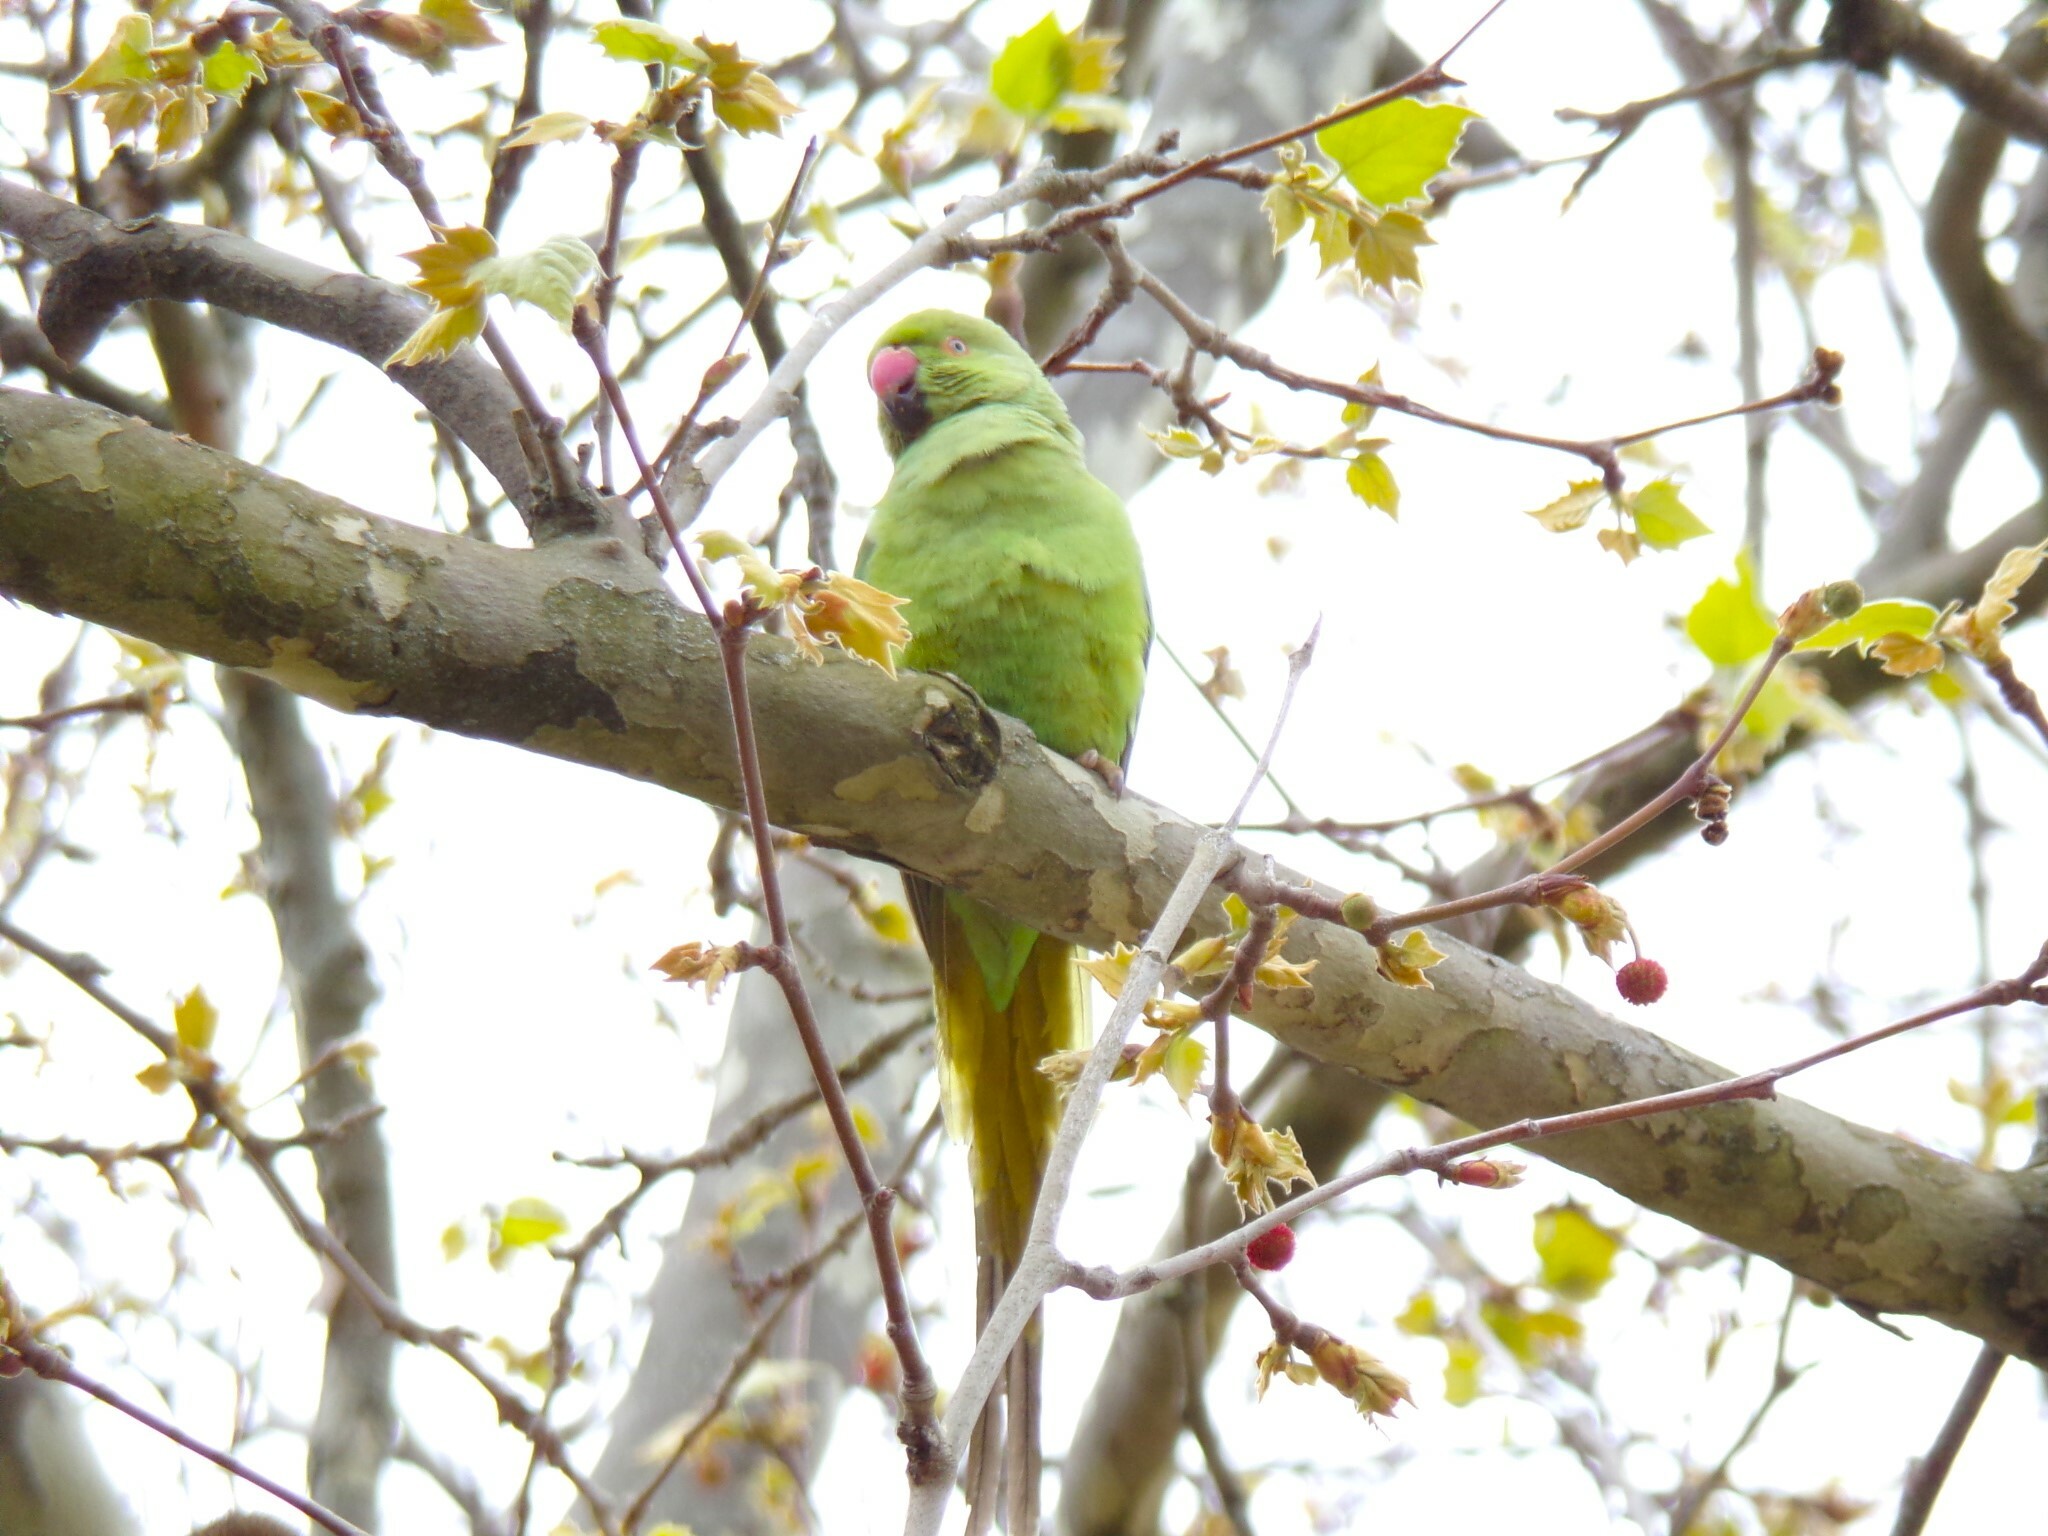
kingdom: Animalia
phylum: Chordata
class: Aves
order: Psittaciformes
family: Psittacidae
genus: Psittacula
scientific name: Psittacula krameri
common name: Rose-ringed parakeet
